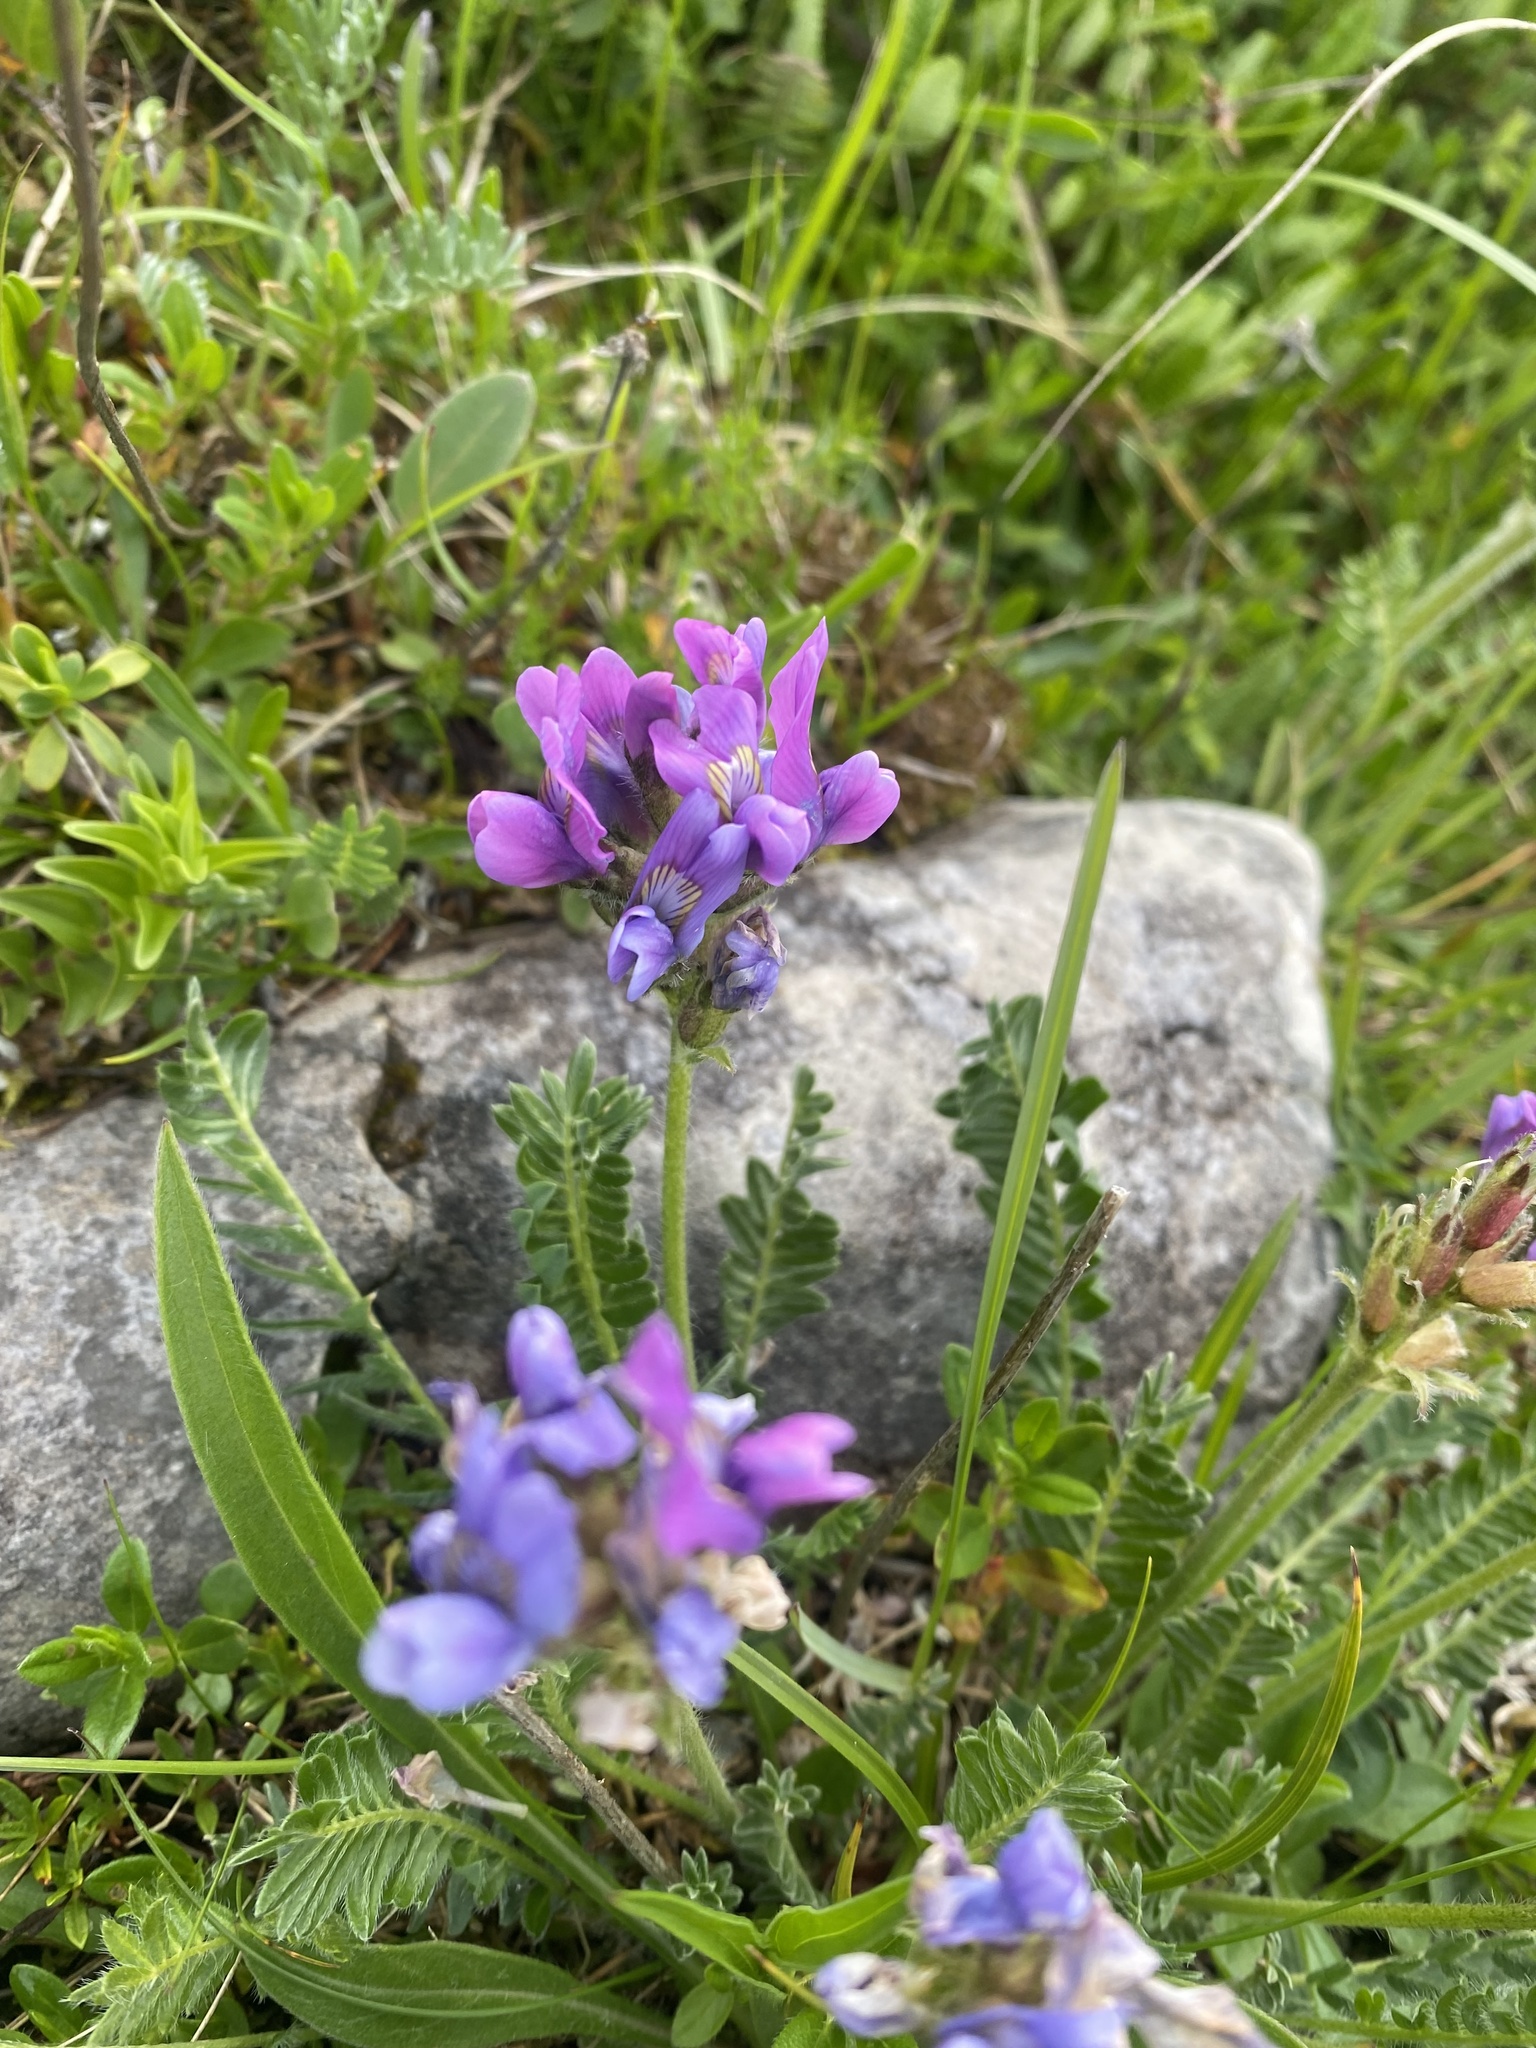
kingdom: Plantae
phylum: Tracheophyta
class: Magnoliopsida
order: Fabales
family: Fabaceae
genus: Oxytropis
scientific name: Oxytropis lazica
